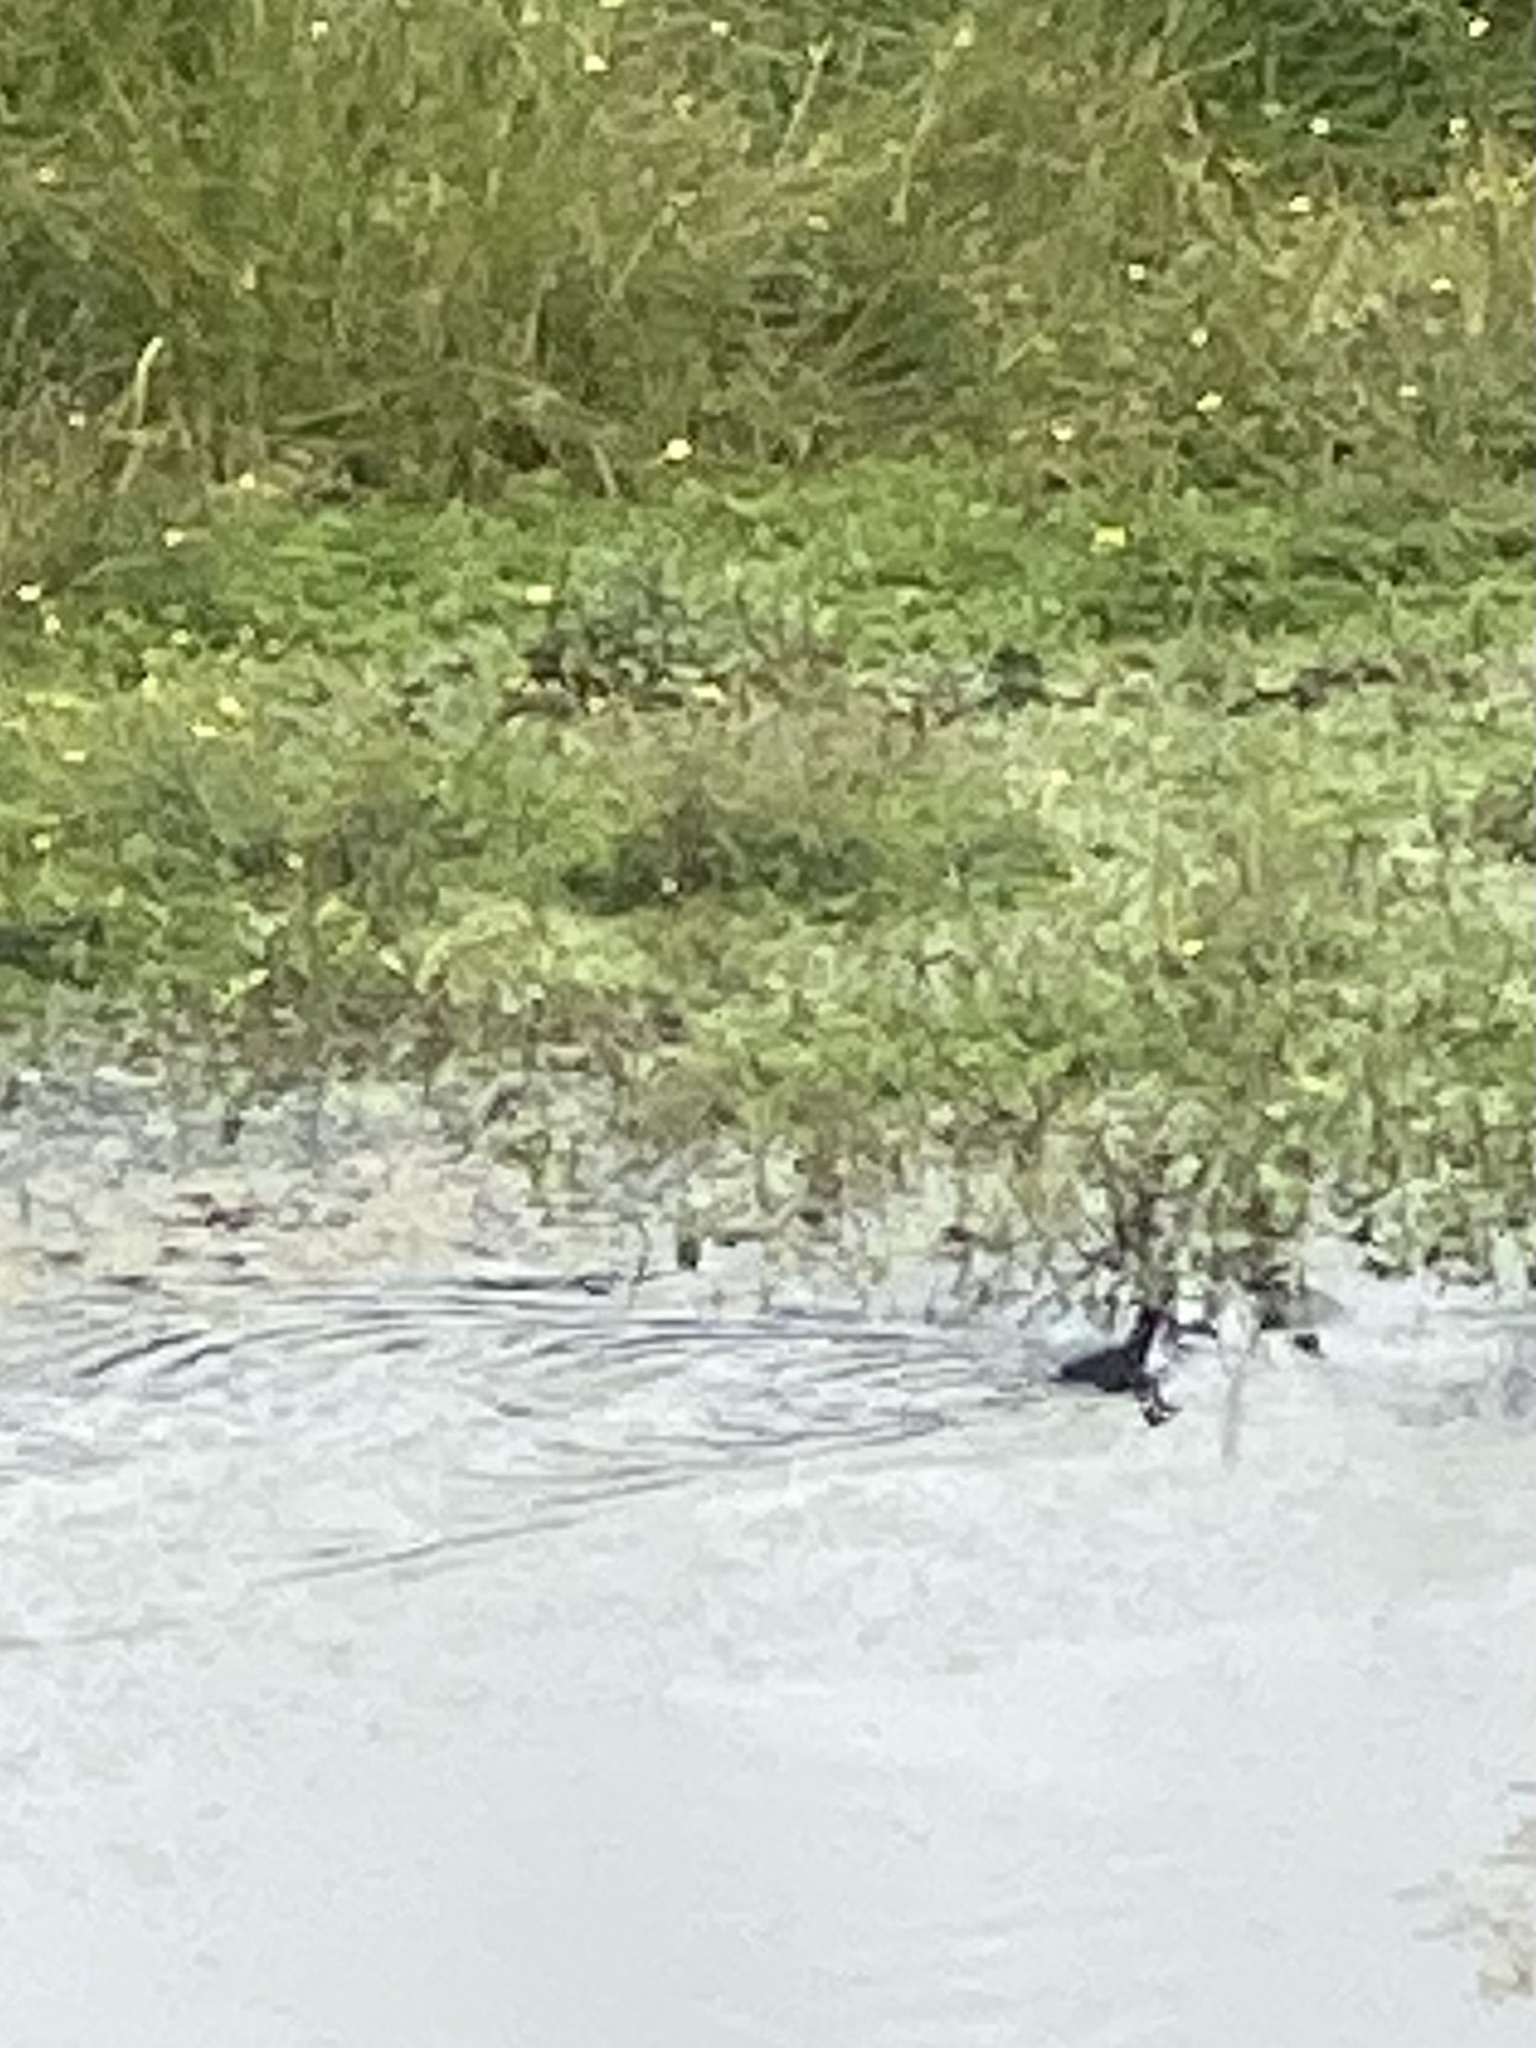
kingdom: Animalia
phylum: Chordata
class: Aves
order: Gruiformes
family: Rallidae
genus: Fulica
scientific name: Fulica atra
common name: Eurasian coot
